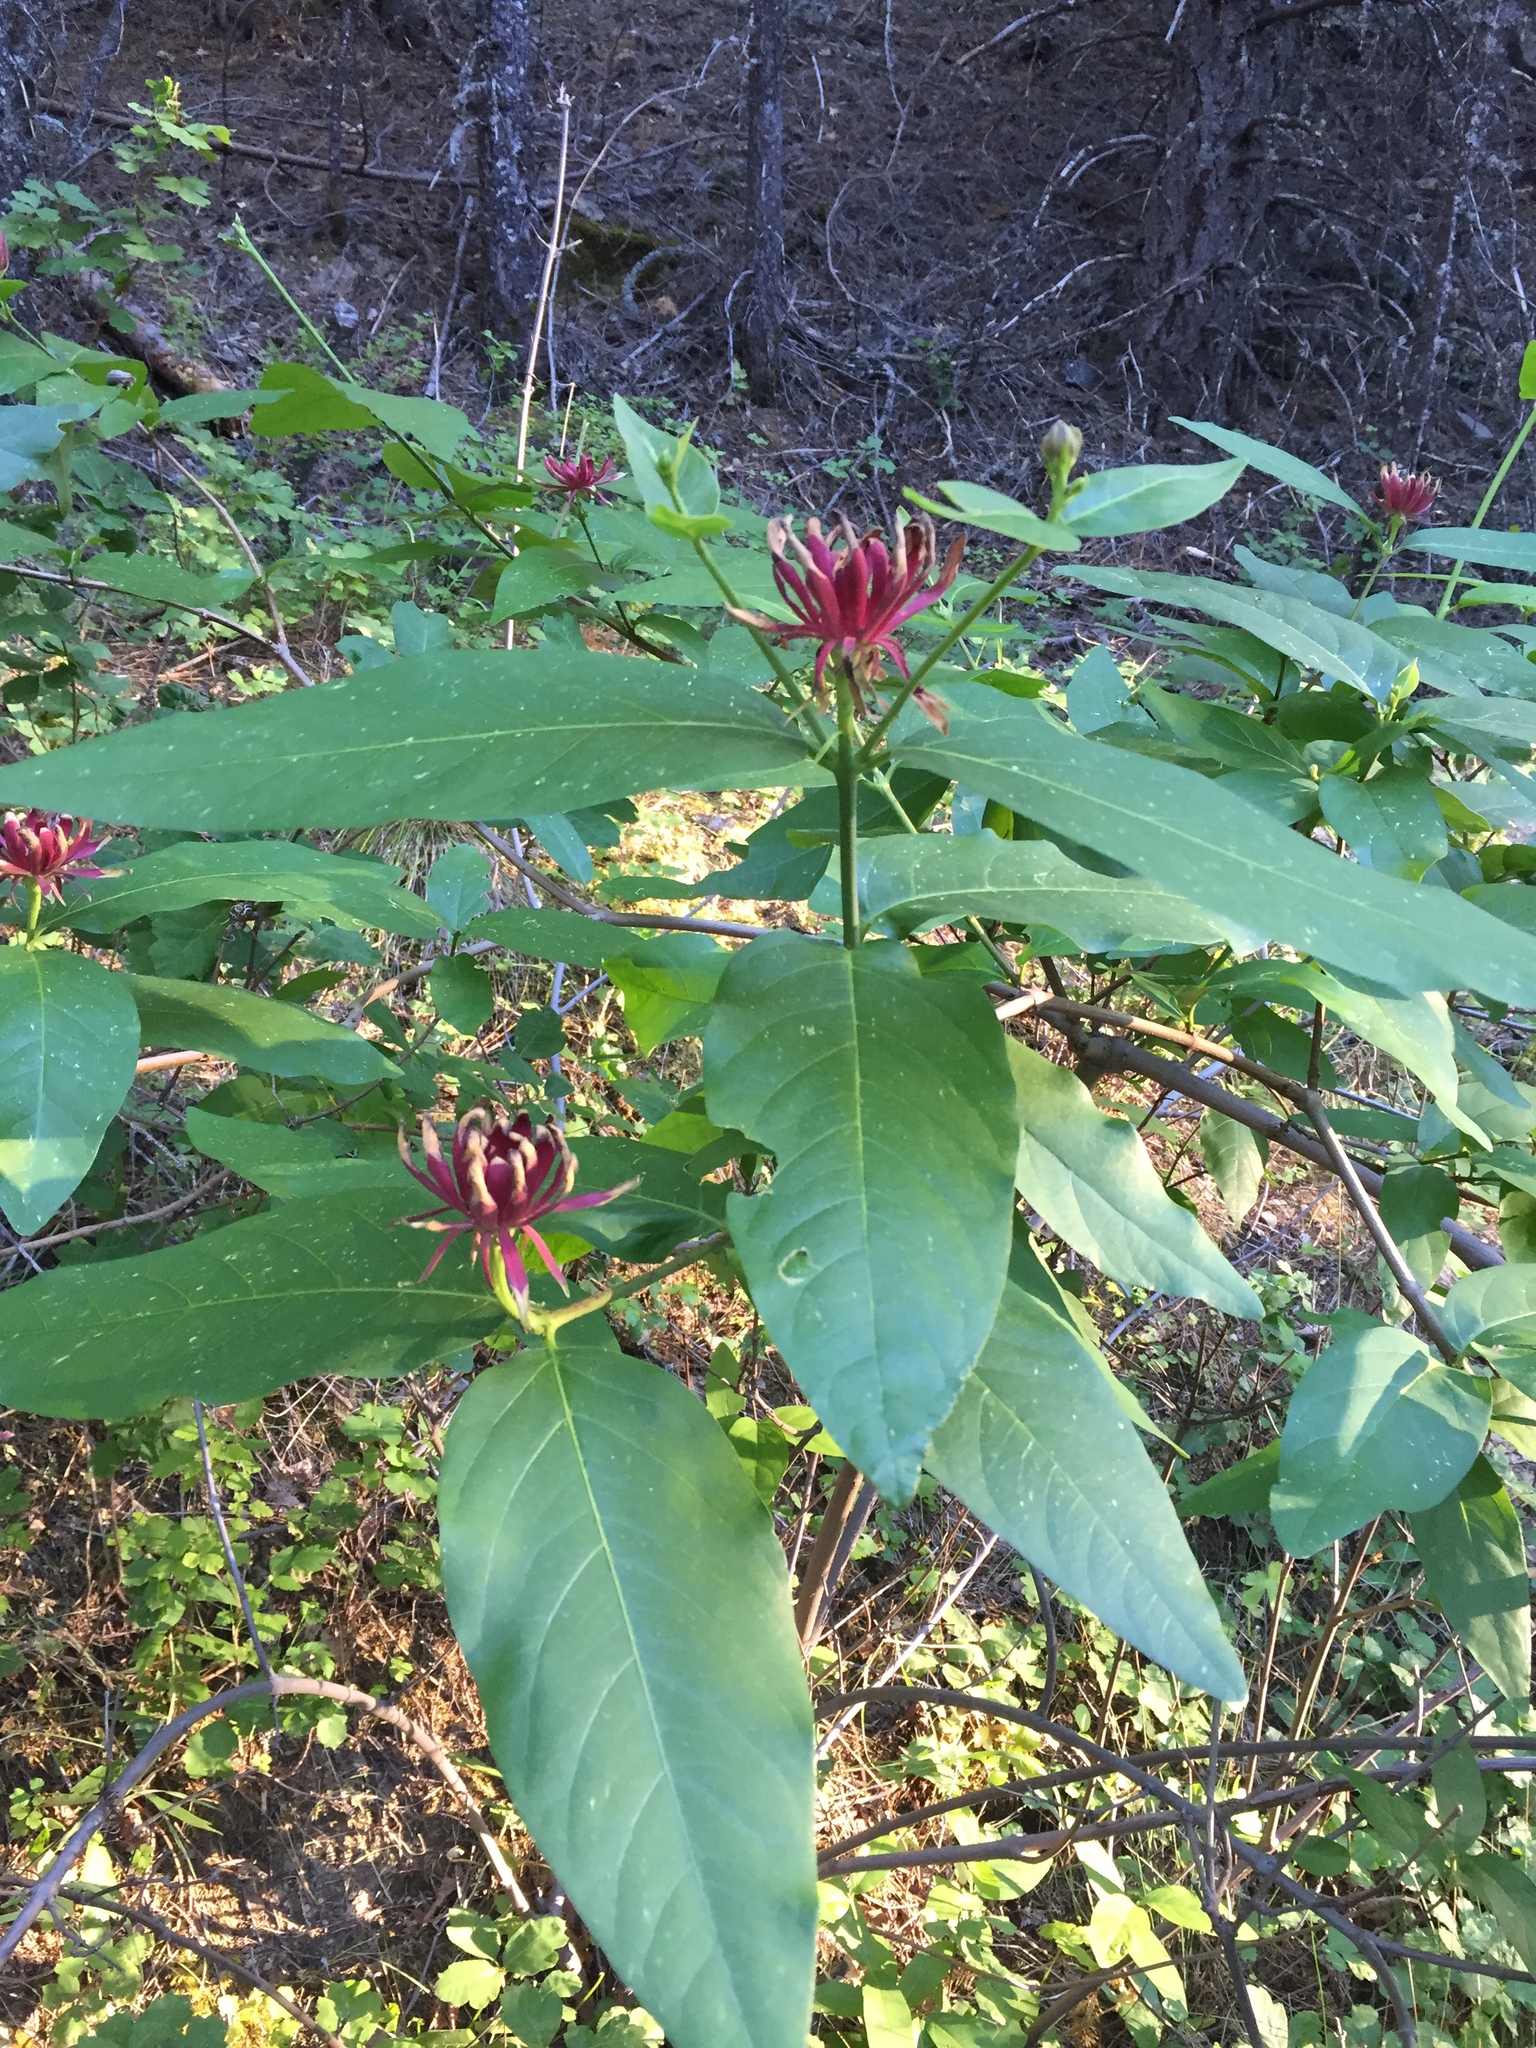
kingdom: Plantae
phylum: Tracheophyta
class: Magnoliopsida
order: Laurales
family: Calycanthaceae
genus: Calycanthus
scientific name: Calycanthus occidentalis
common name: California spicebush
